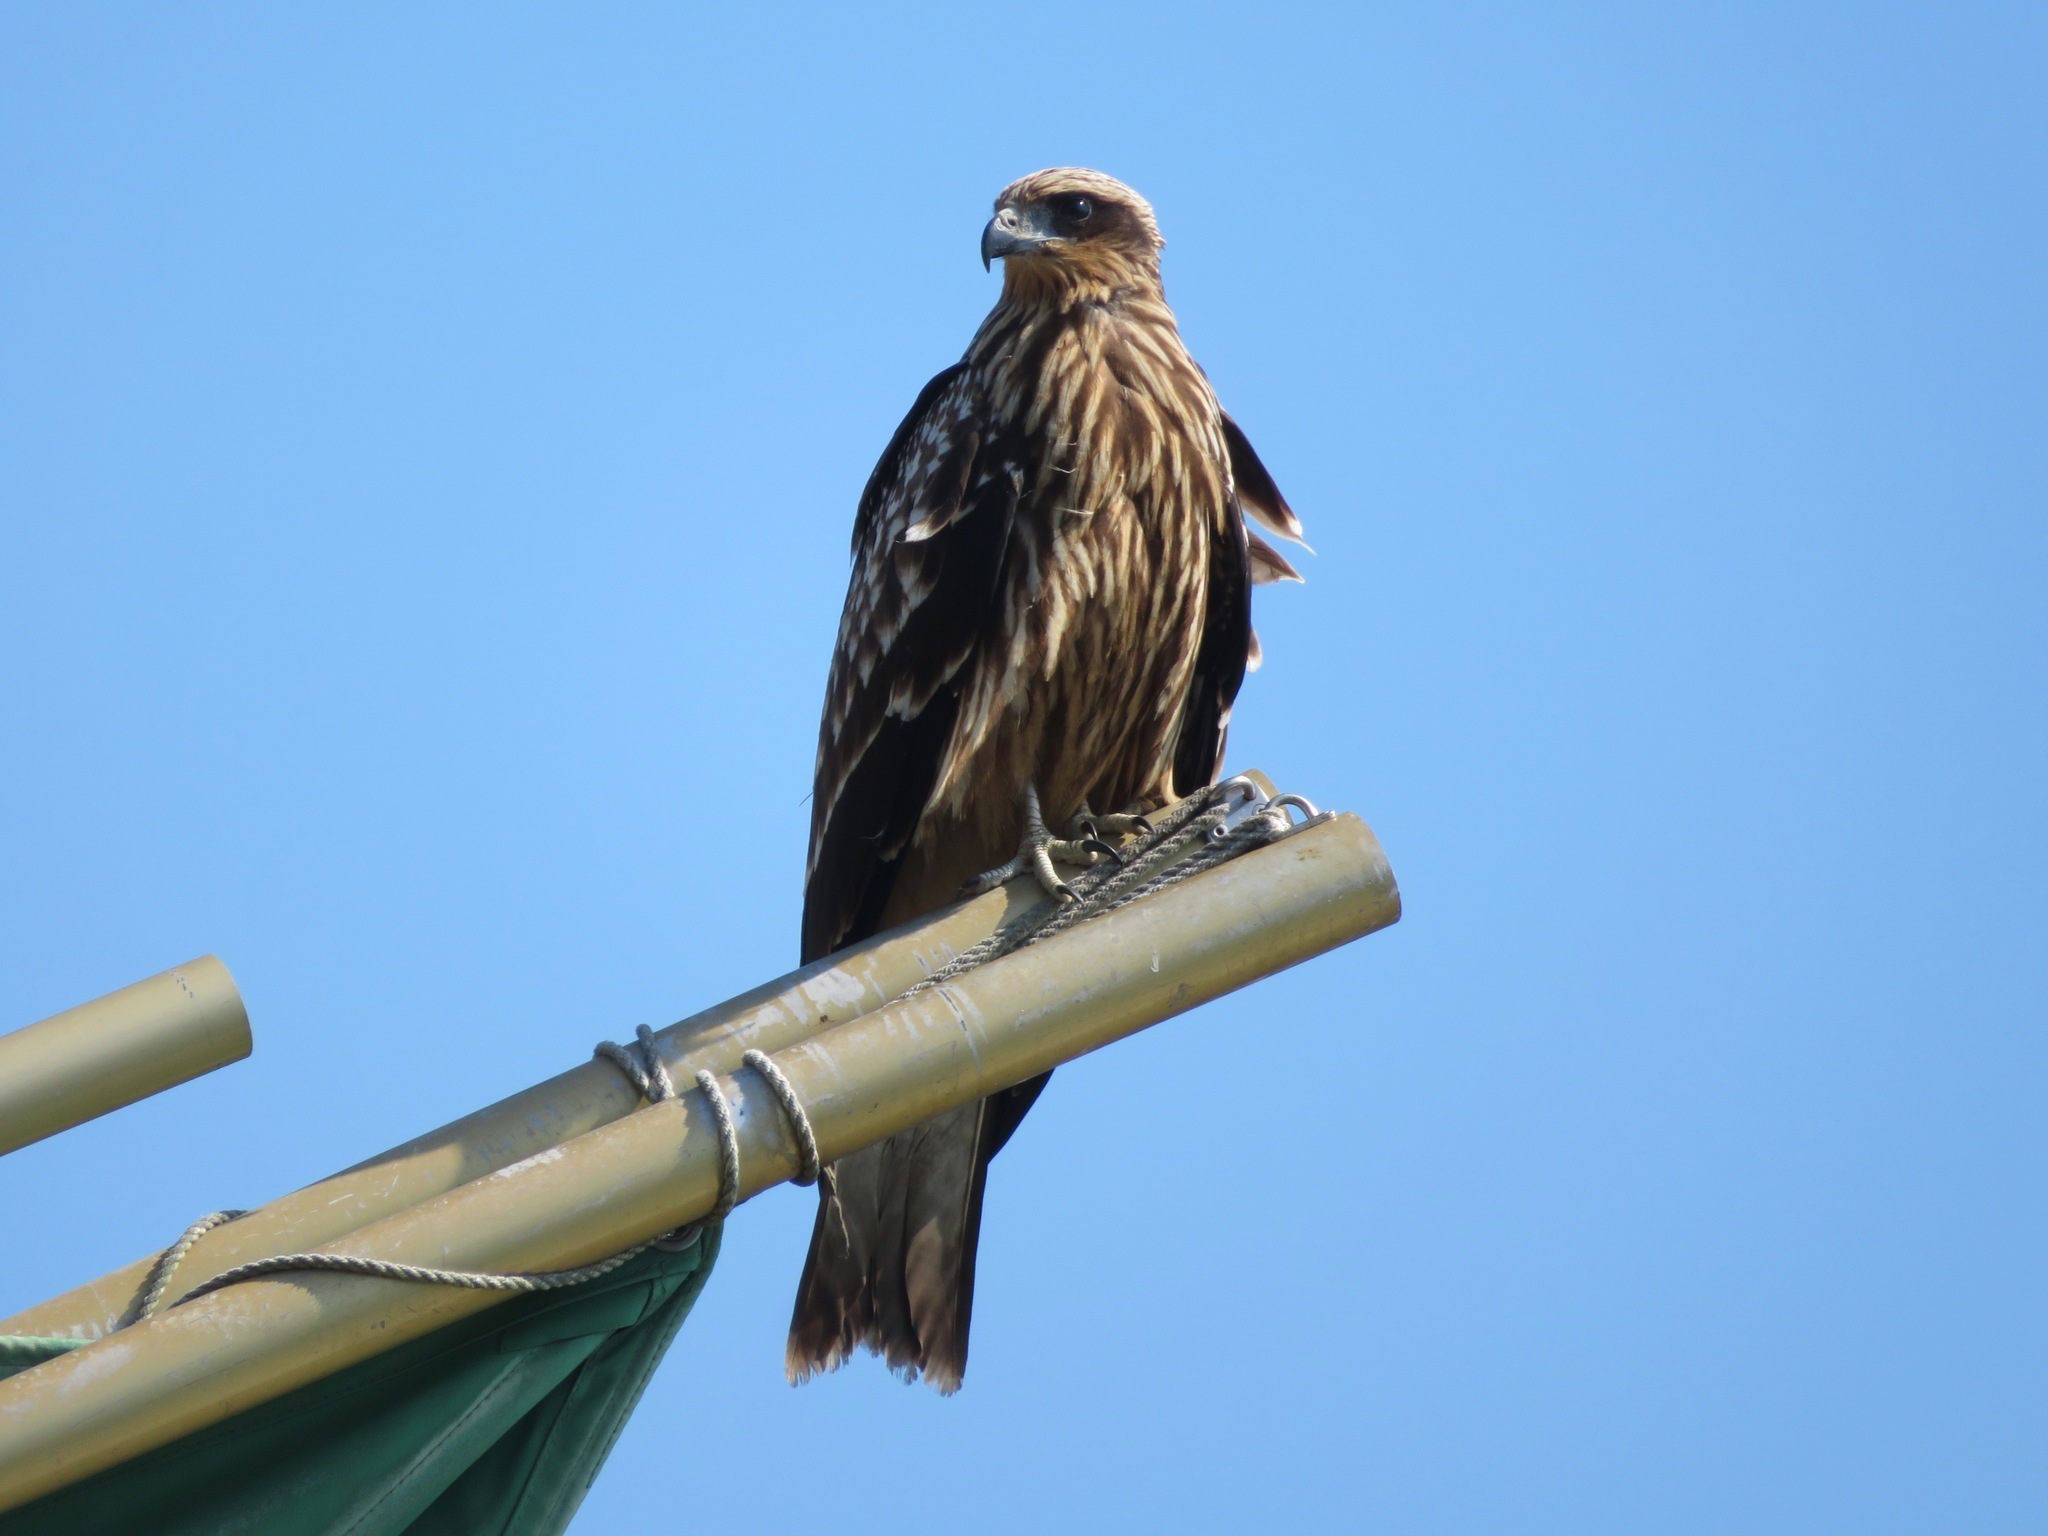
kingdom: Animalia
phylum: Chordata
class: Aves
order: Accipitriformes
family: Accipitridae
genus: Milvus
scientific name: Milvus migrans
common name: Black kite
